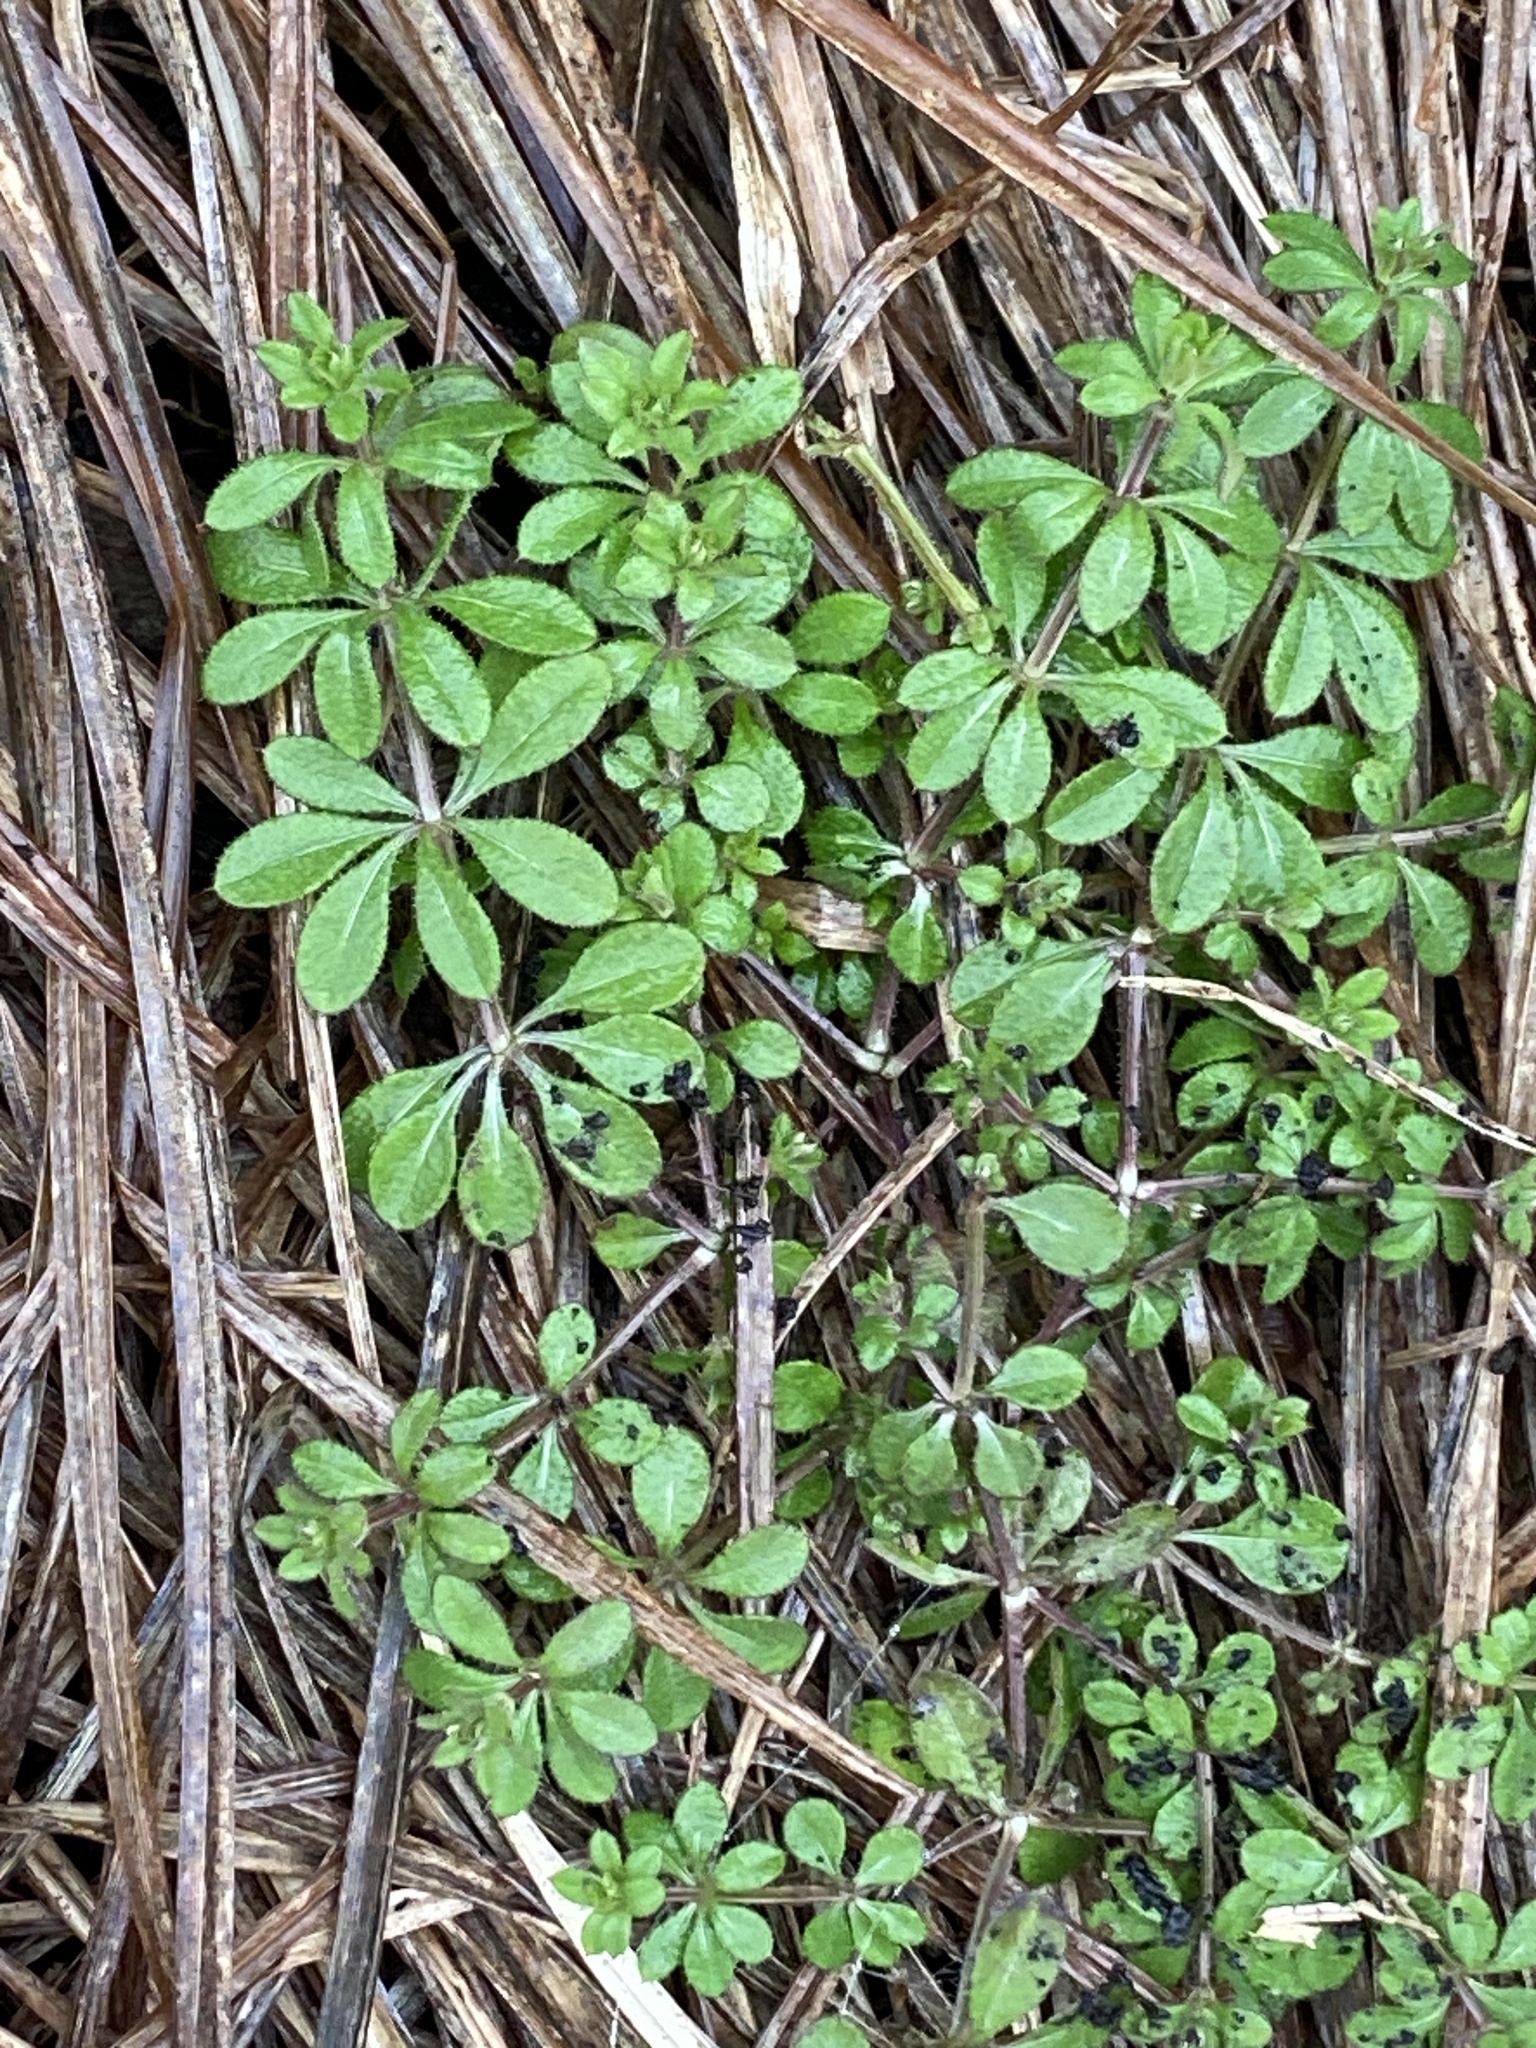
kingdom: Plantae
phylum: Tracheophyta
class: Magnoliopsida
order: Gentianales
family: Rubiaceae
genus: Galium
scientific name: Galium aparine
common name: Cleavers
